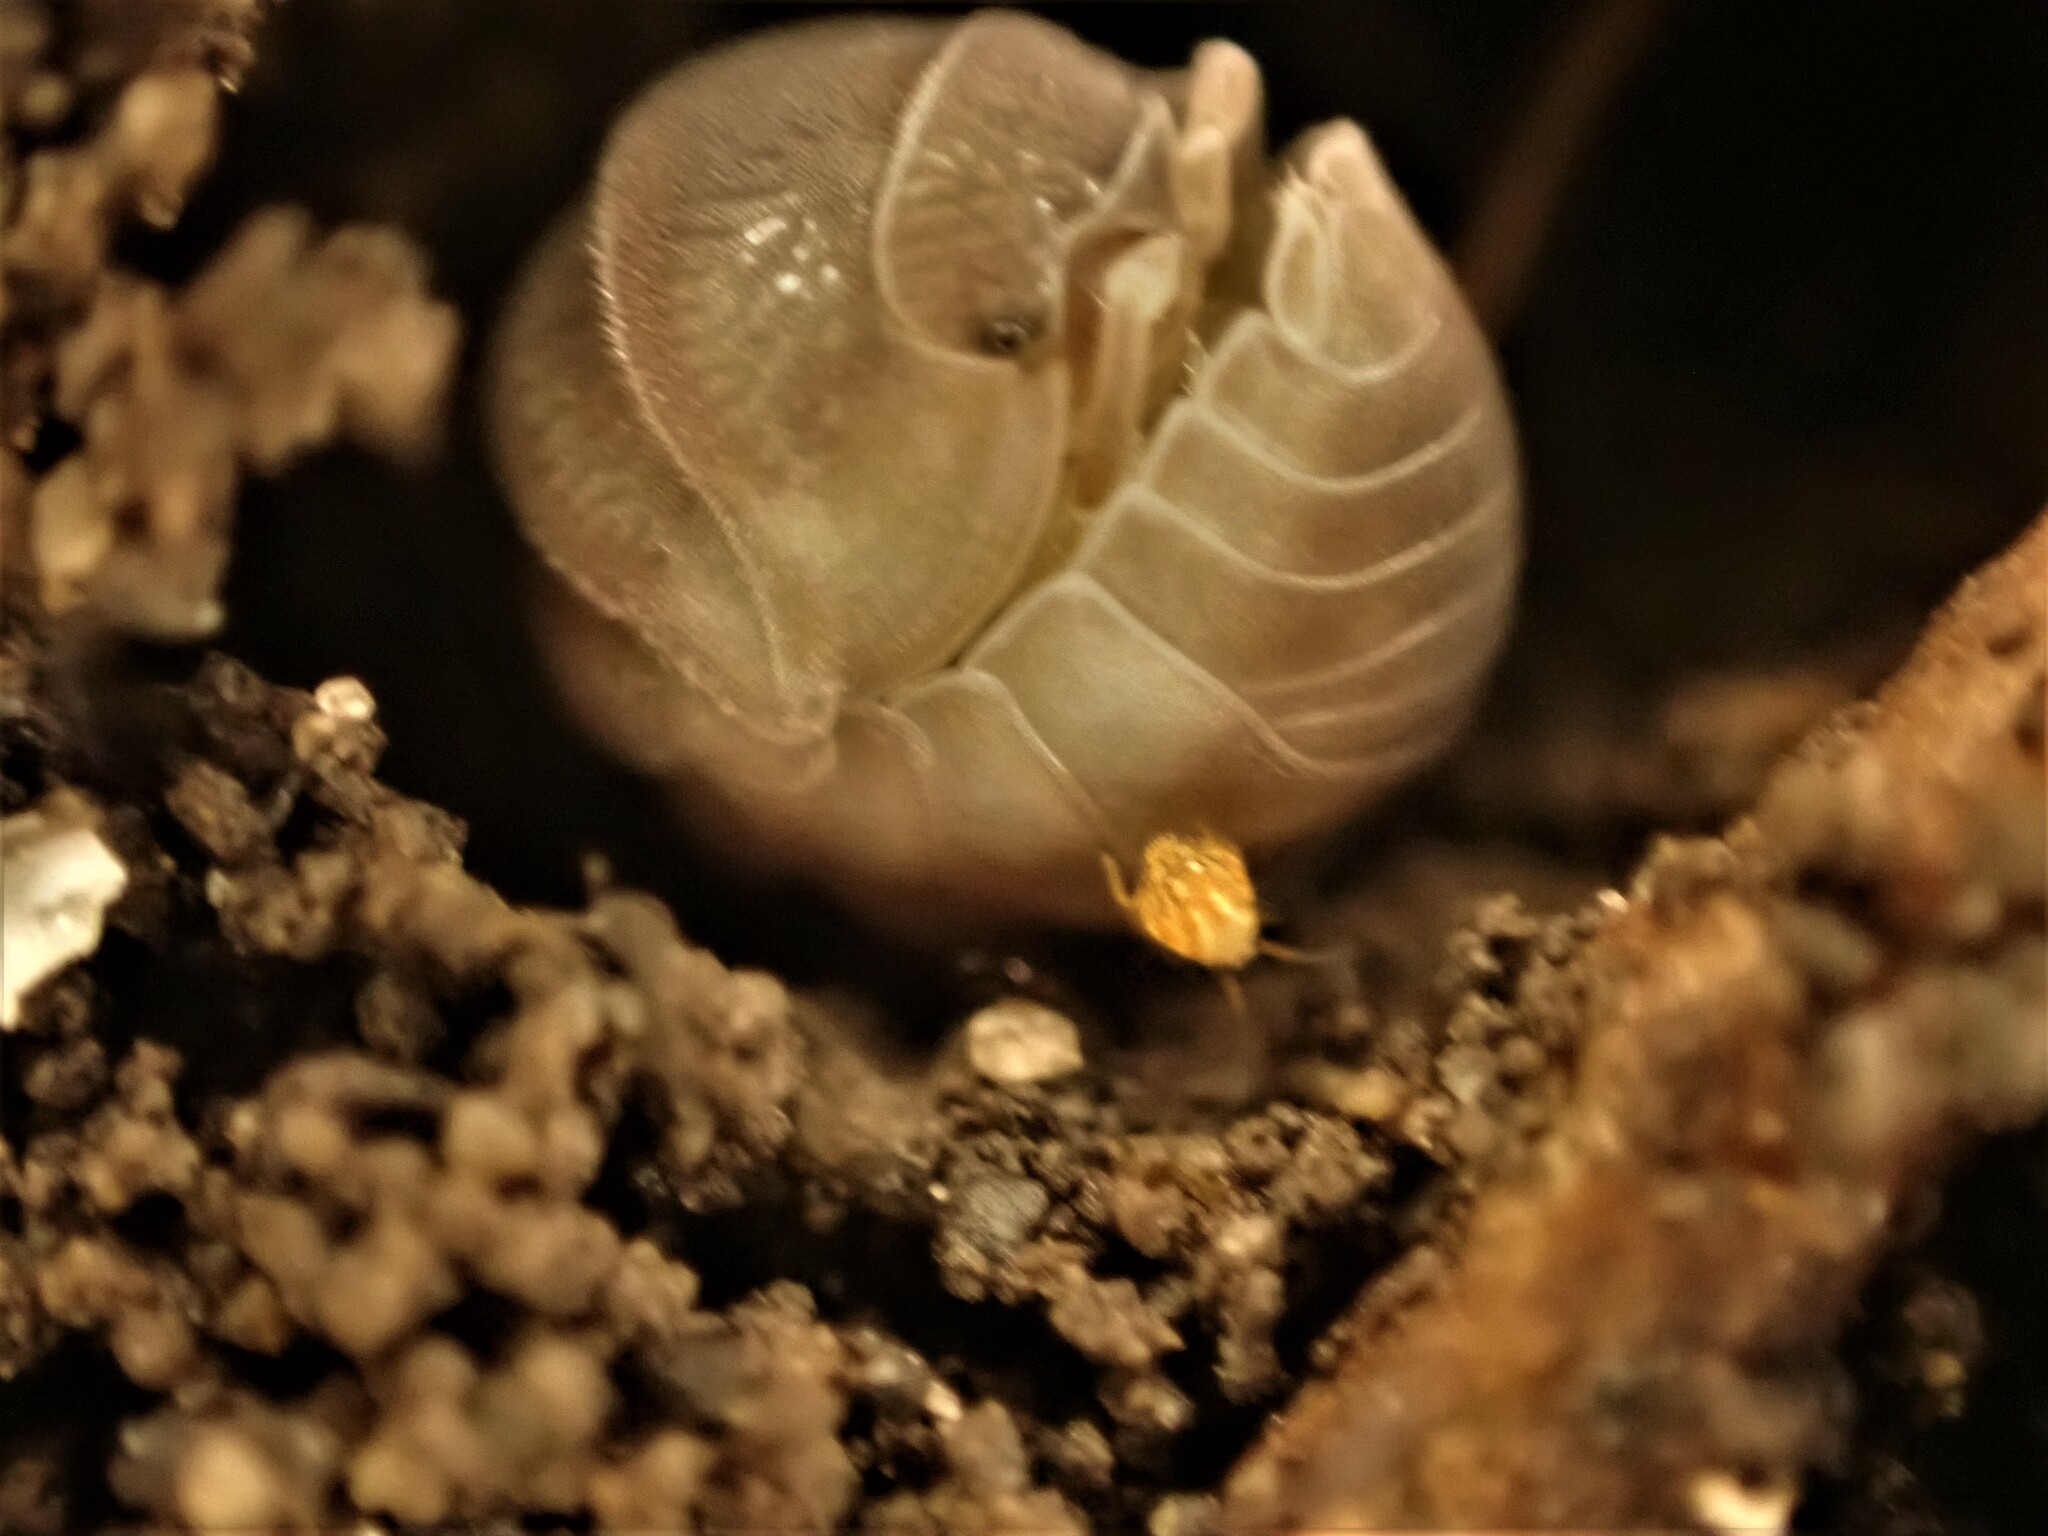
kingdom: Animalia
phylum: Arthropoda
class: Malacostraca
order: Isopoda
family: Armadillidiidae
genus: Eluma
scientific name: Eluma caelata
